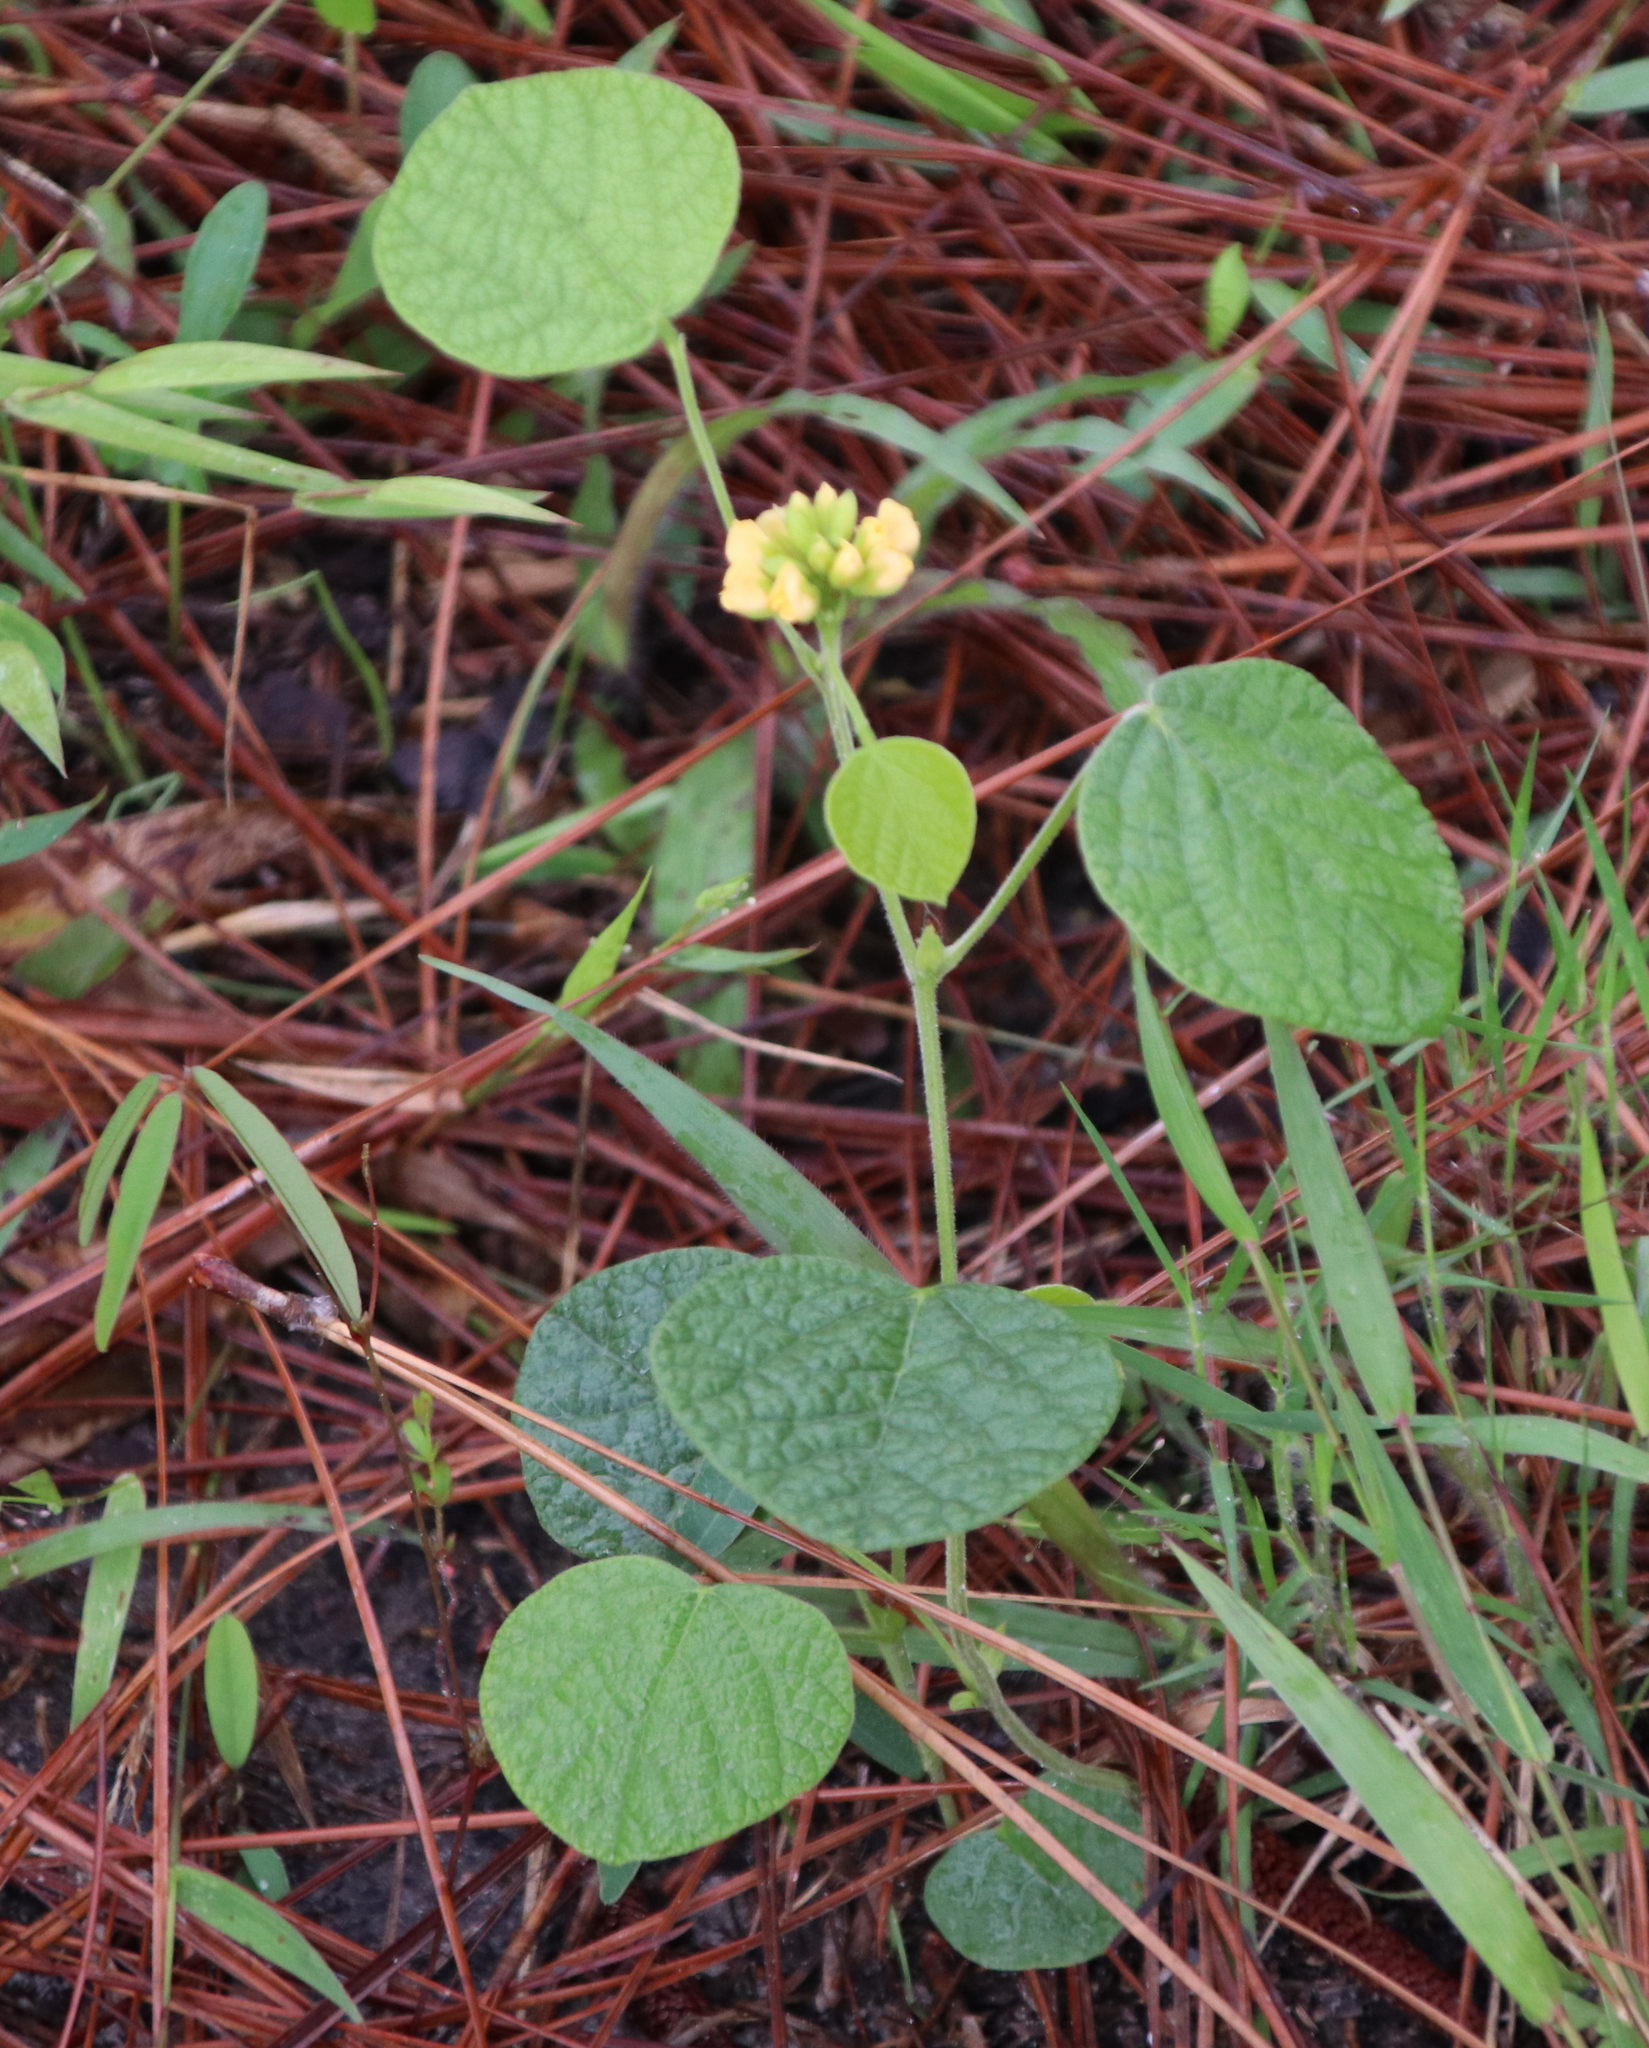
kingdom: Plantae
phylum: Tracheophyta
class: Magnoliopsida
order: Fabales
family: Fabaceae
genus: Rhynchosia
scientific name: Rhynchosia reniformis
